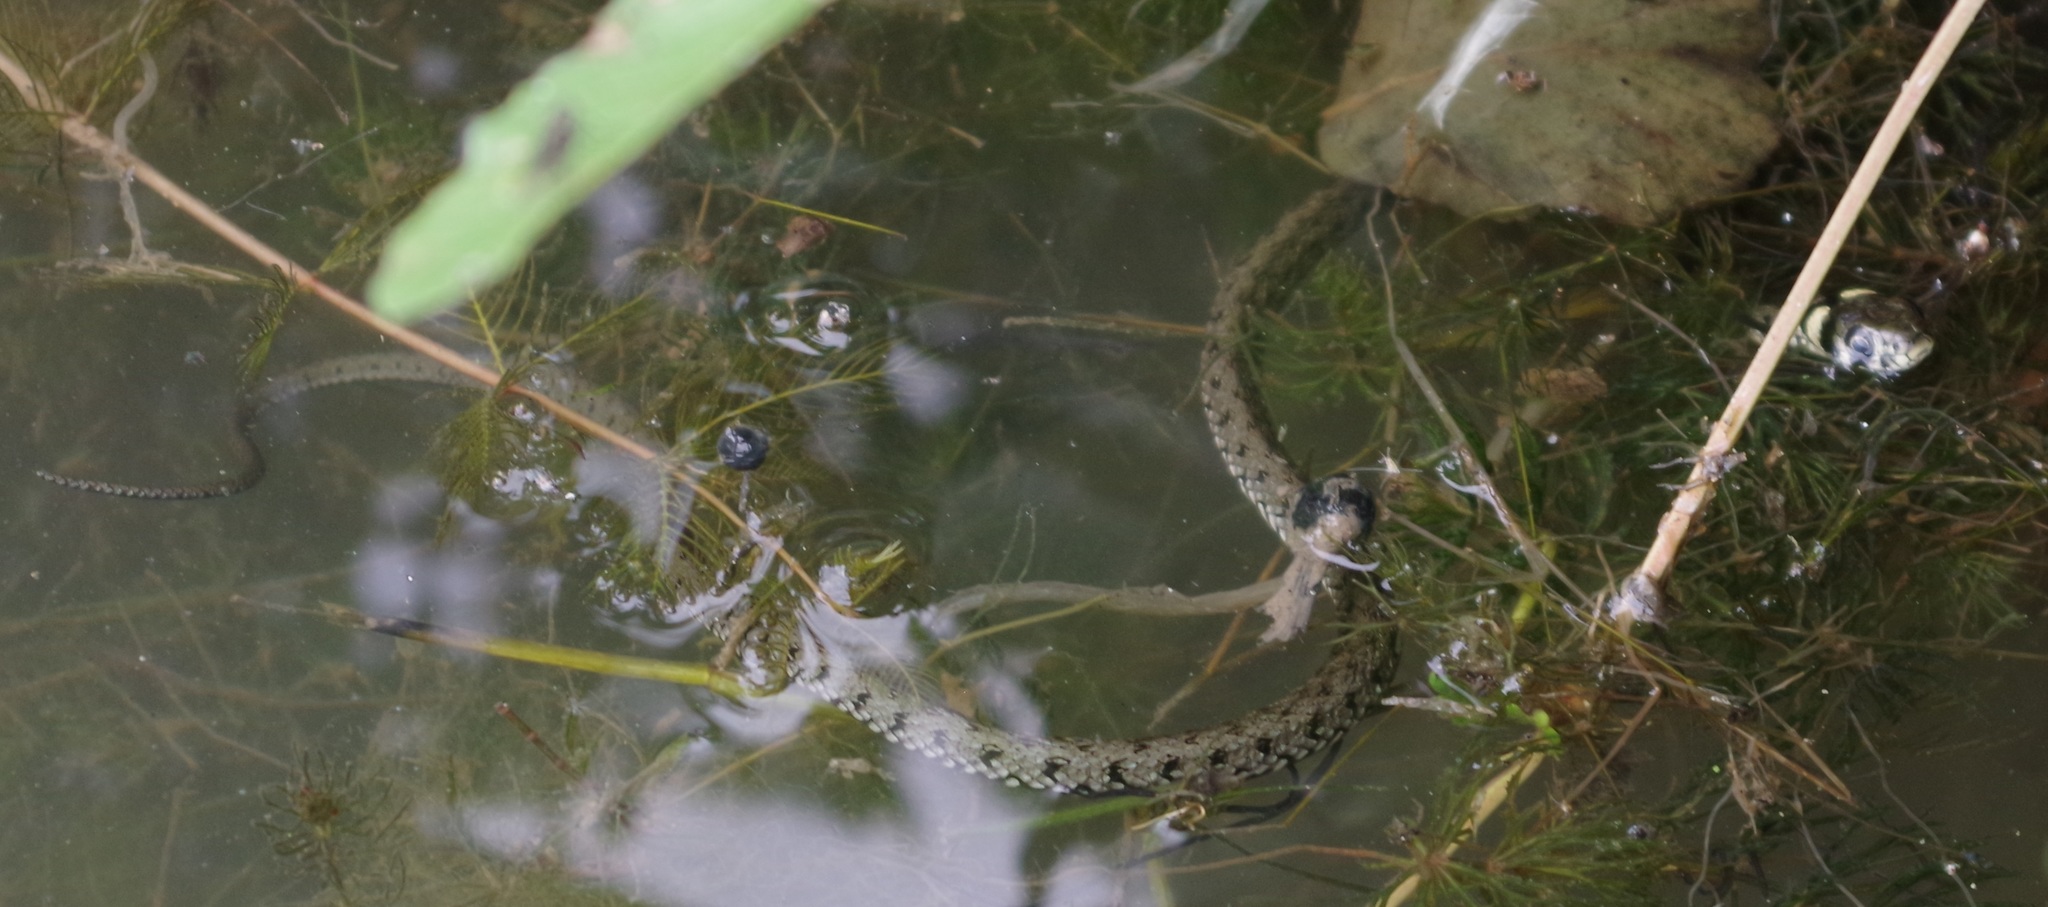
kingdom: Animalia
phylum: Chordata
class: Squamata
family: Colubridae
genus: Natrix
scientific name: Natrix natrix
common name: Grass snake
